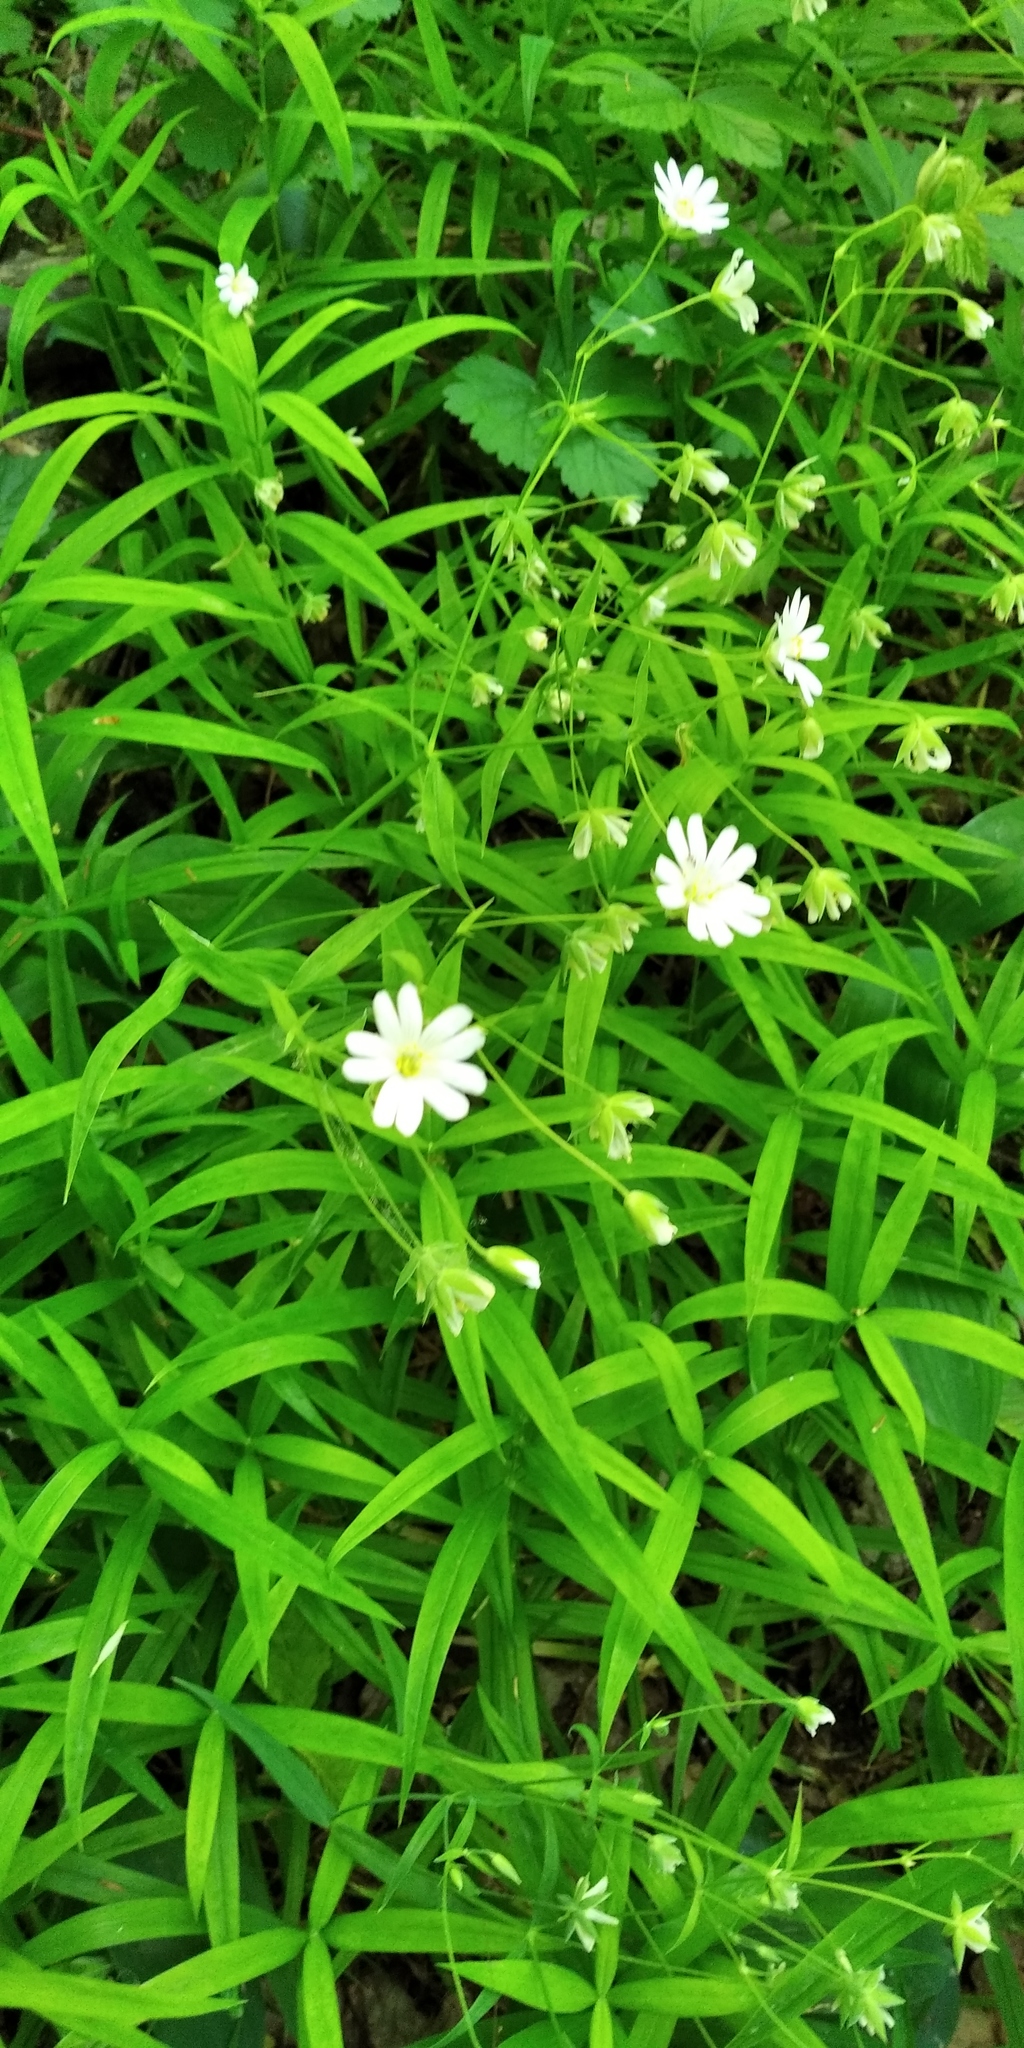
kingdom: Plantae
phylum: Tracheophyta
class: Magnoliopsida
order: Caryophyllales
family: Caryophyllaceae
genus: Rabelera
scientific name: Rabelera holostea
